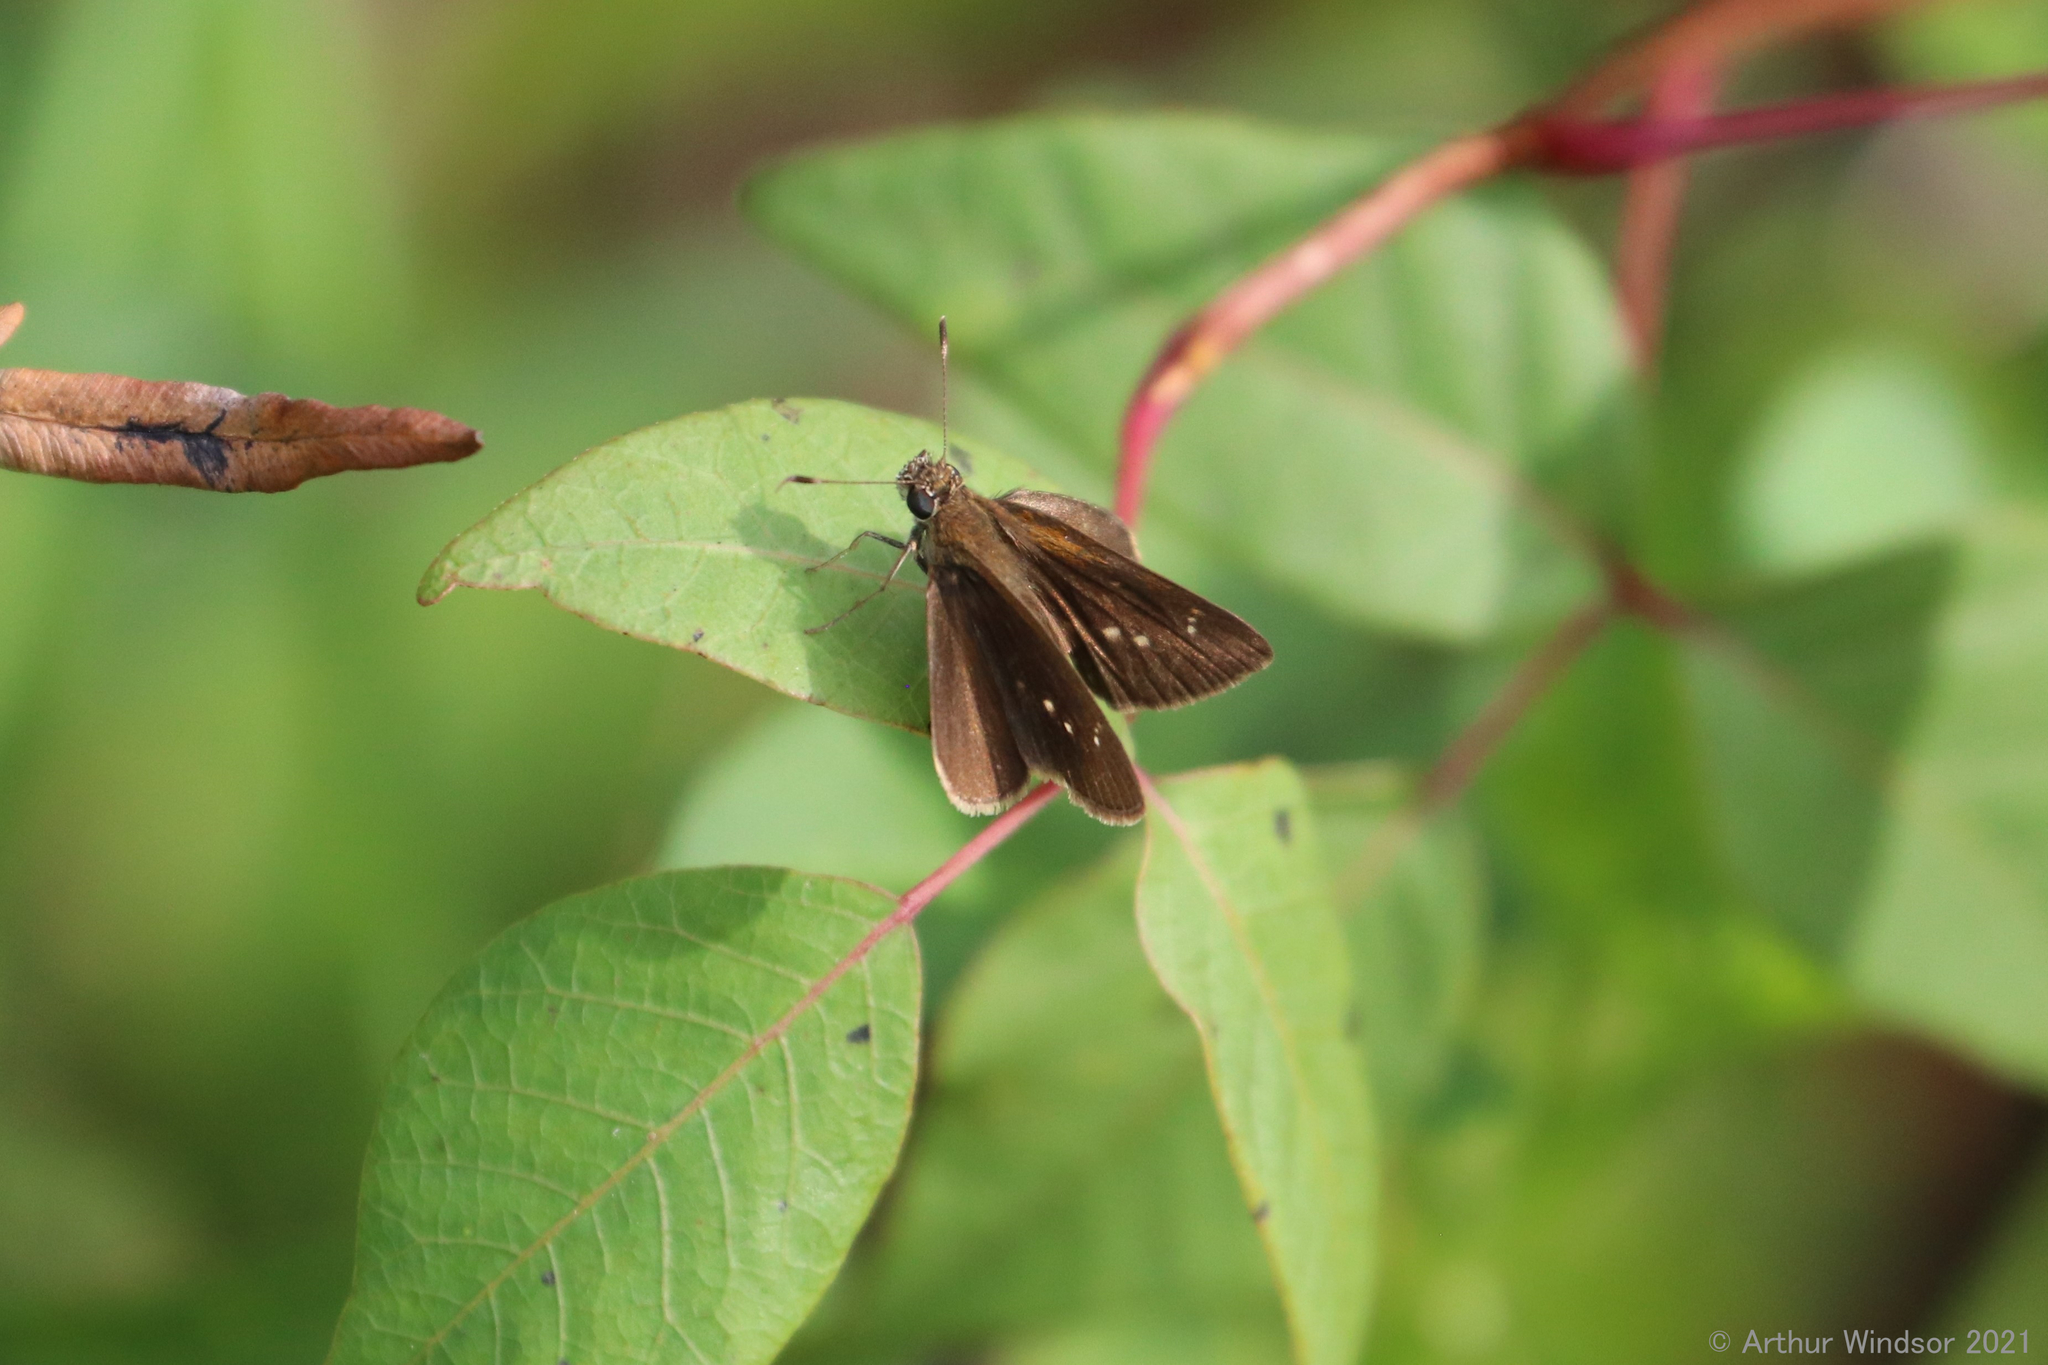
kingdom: Animalia
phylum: Arthropoda
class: Insecta
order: Lepidoptera
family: Hesperiidae
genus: Cymaenes
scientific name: Cymaenes tripunctus
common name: Dingy dotted skipper
